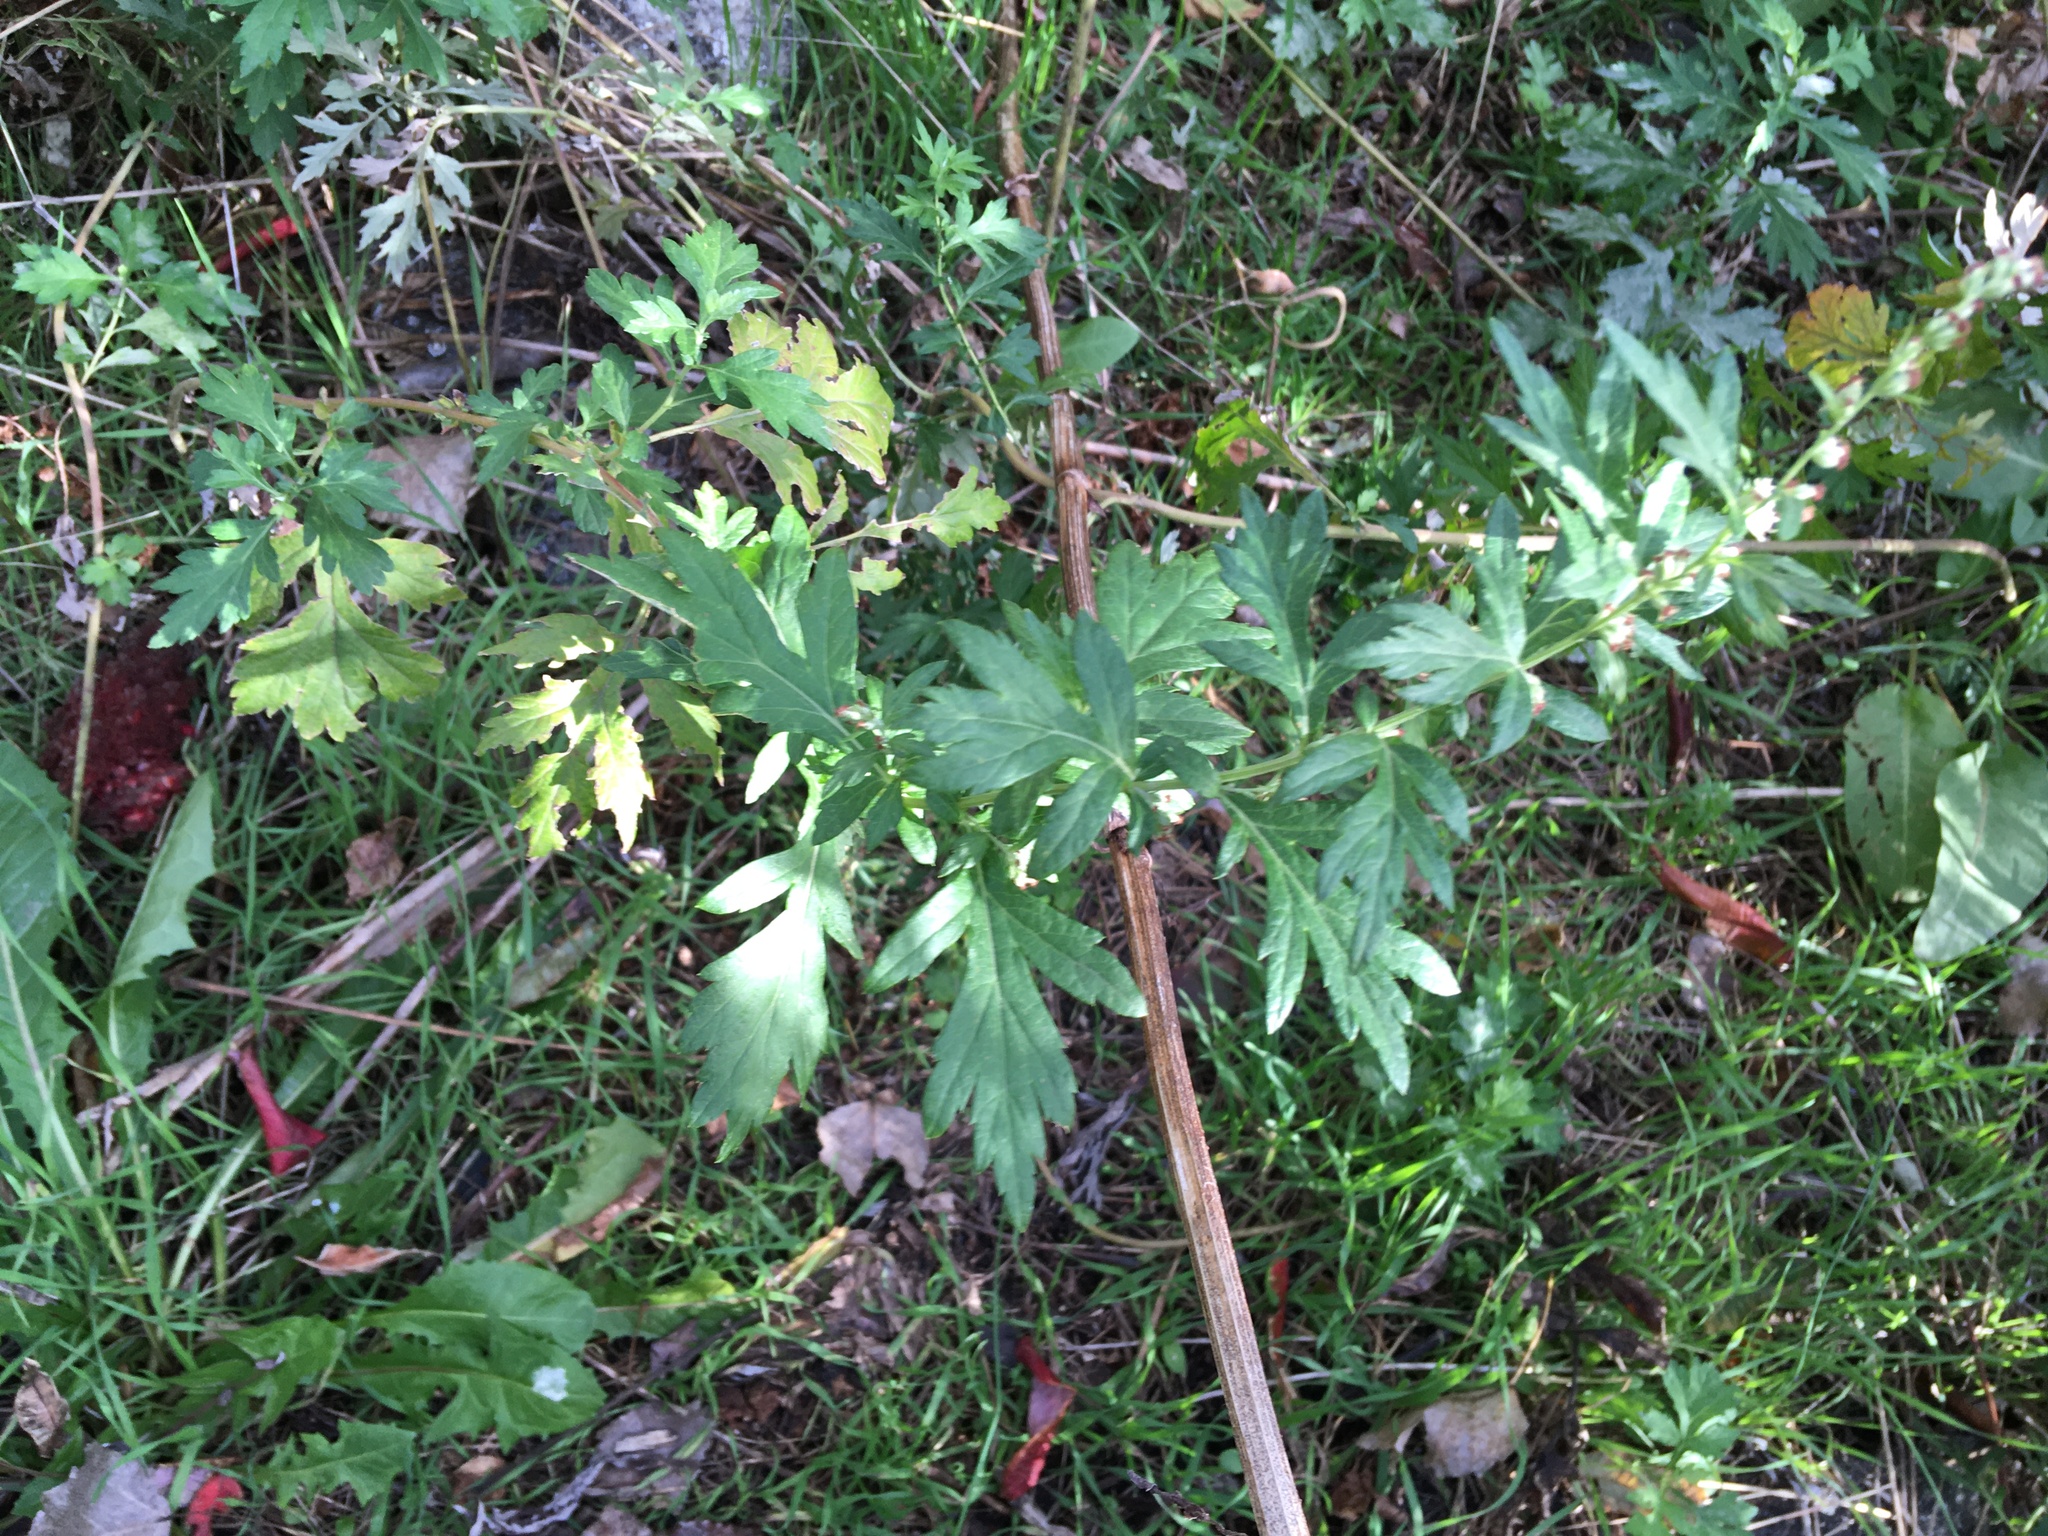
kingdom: Plantae
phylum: Tracheophyta
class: Magnoliopsida
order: Asterales
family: Asteraceae
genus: Artemisia
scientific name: Artemisia vulgaris
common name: Mugwort
